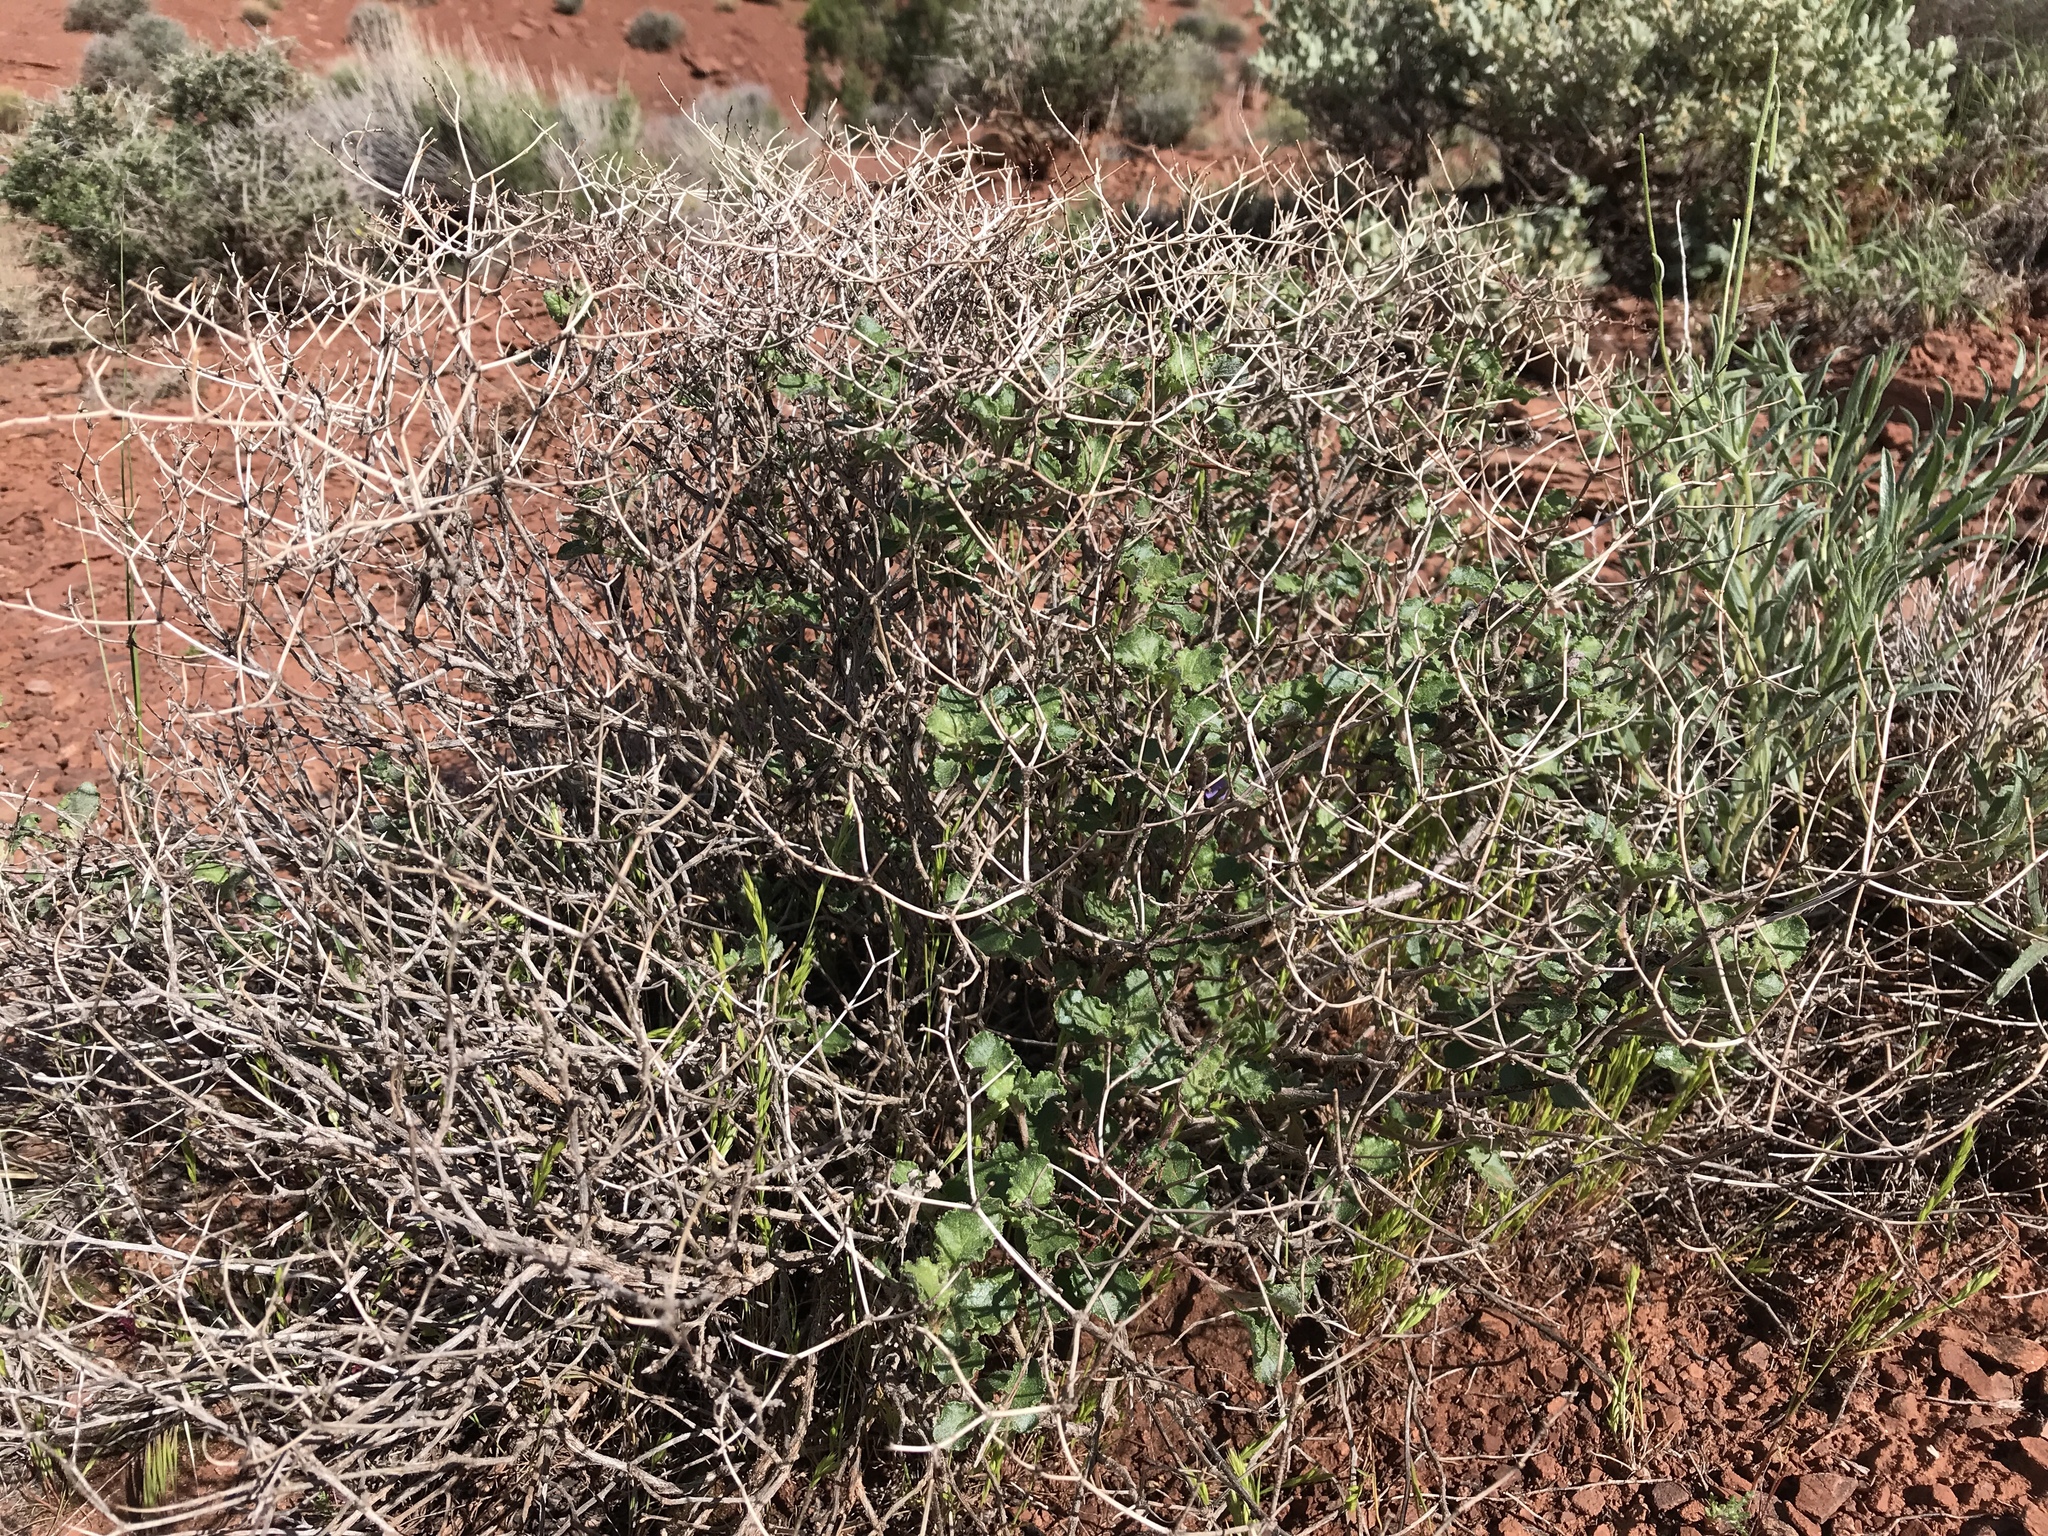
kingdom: Plantae
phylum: Tracheophyta
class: Magnoliopsida
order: Caryophyllales
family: Polygonaceae
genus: Eriogonum
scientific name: Eriogonum corymbosum
